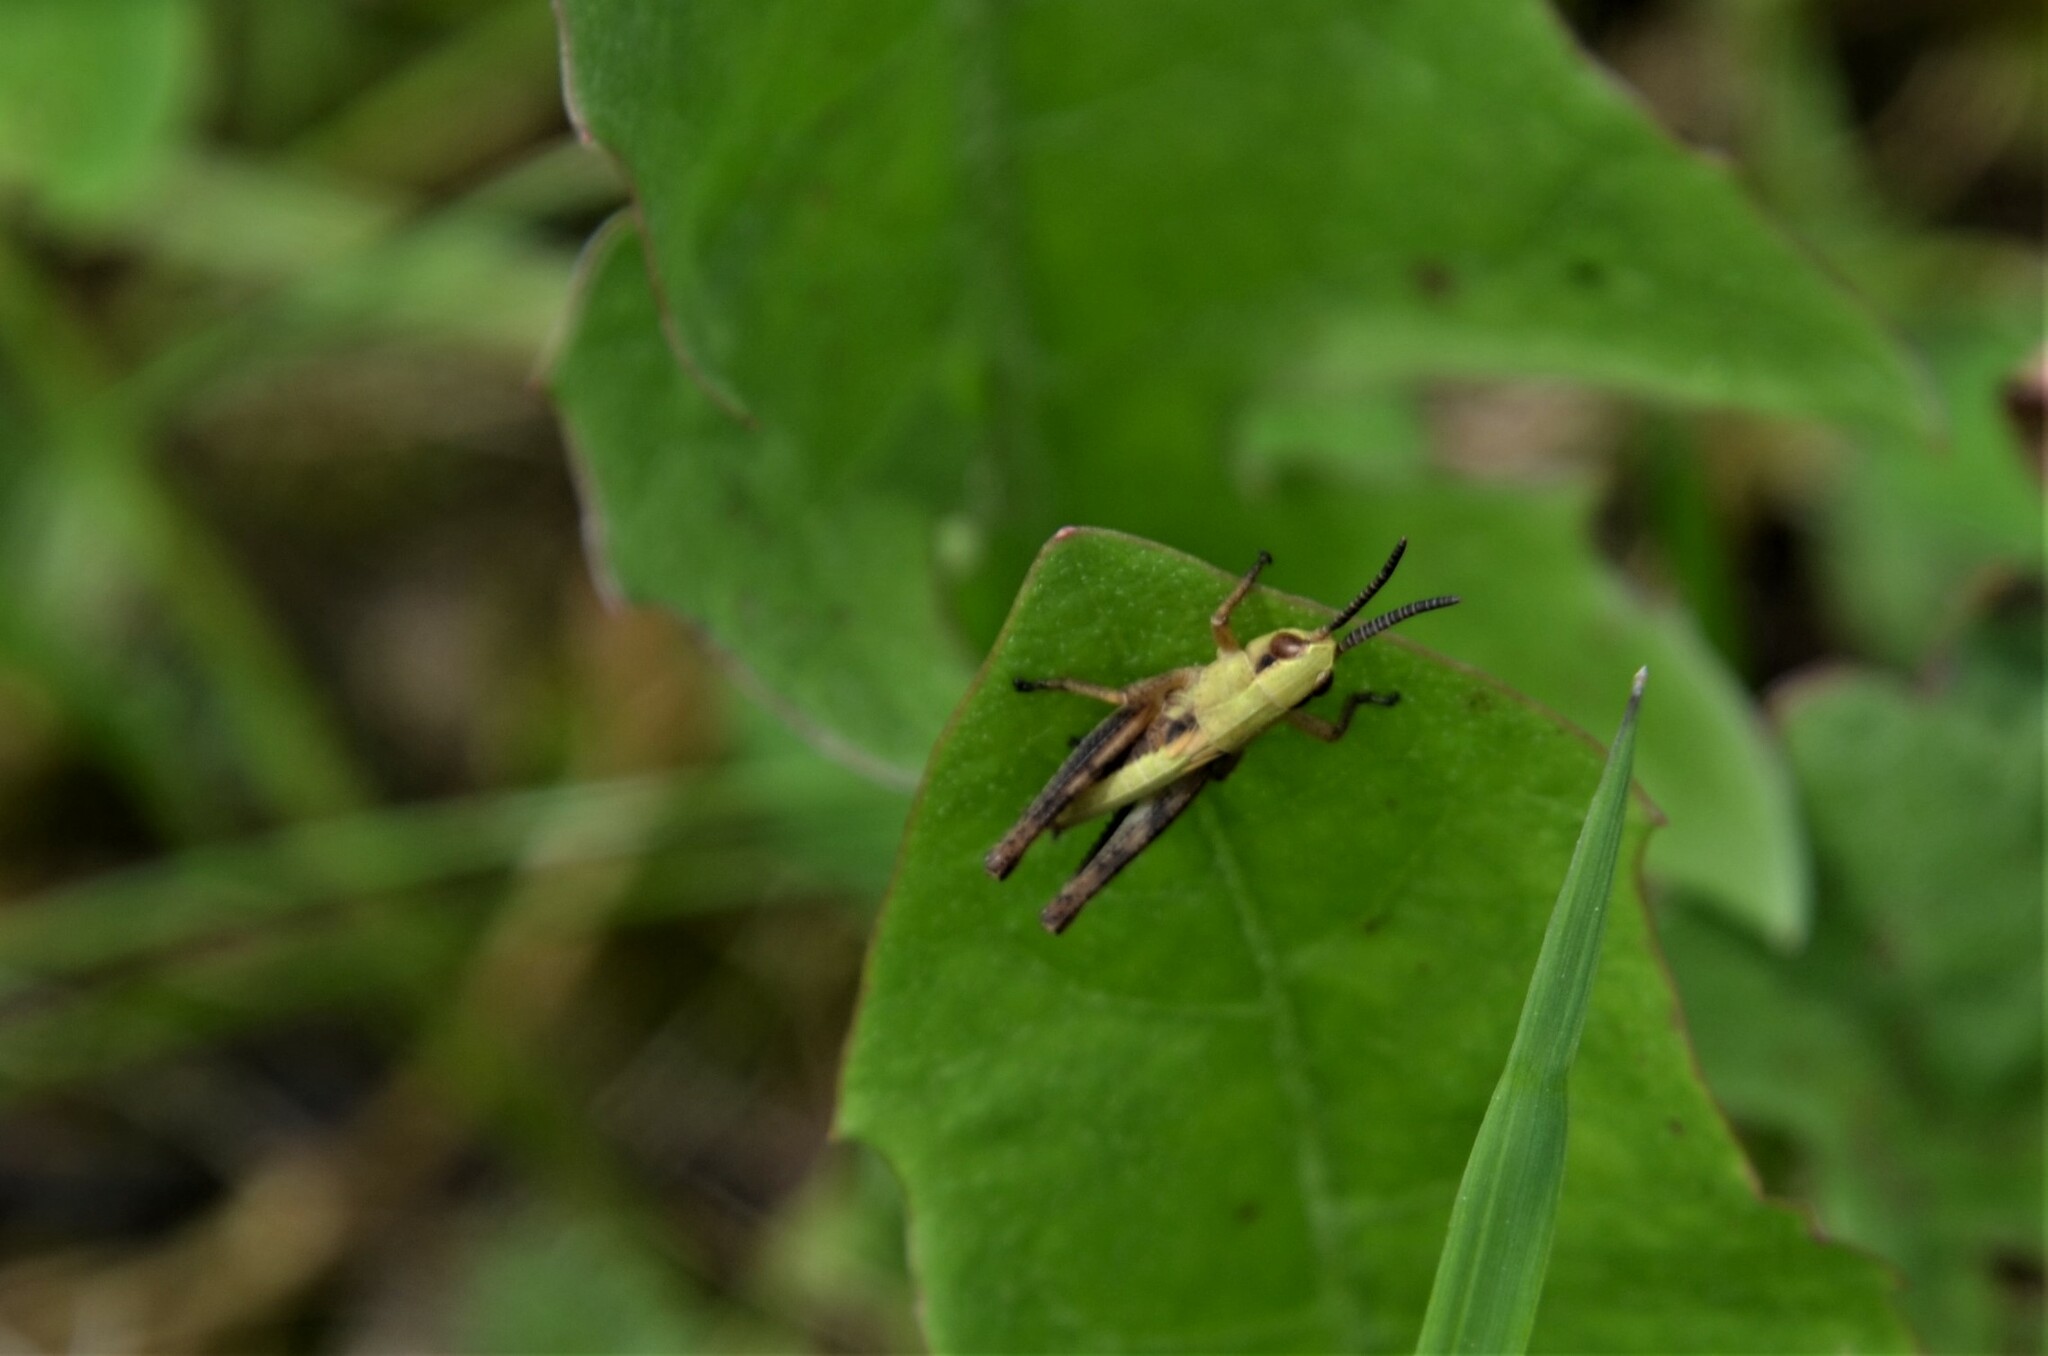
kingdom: Animalia
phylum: Arthropoda
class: Insecta
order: Orthoptera
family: Acrididae
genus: Pseudochorthippus
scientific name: Pseudochorthippus parallelus
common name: Meadow grasshopper
